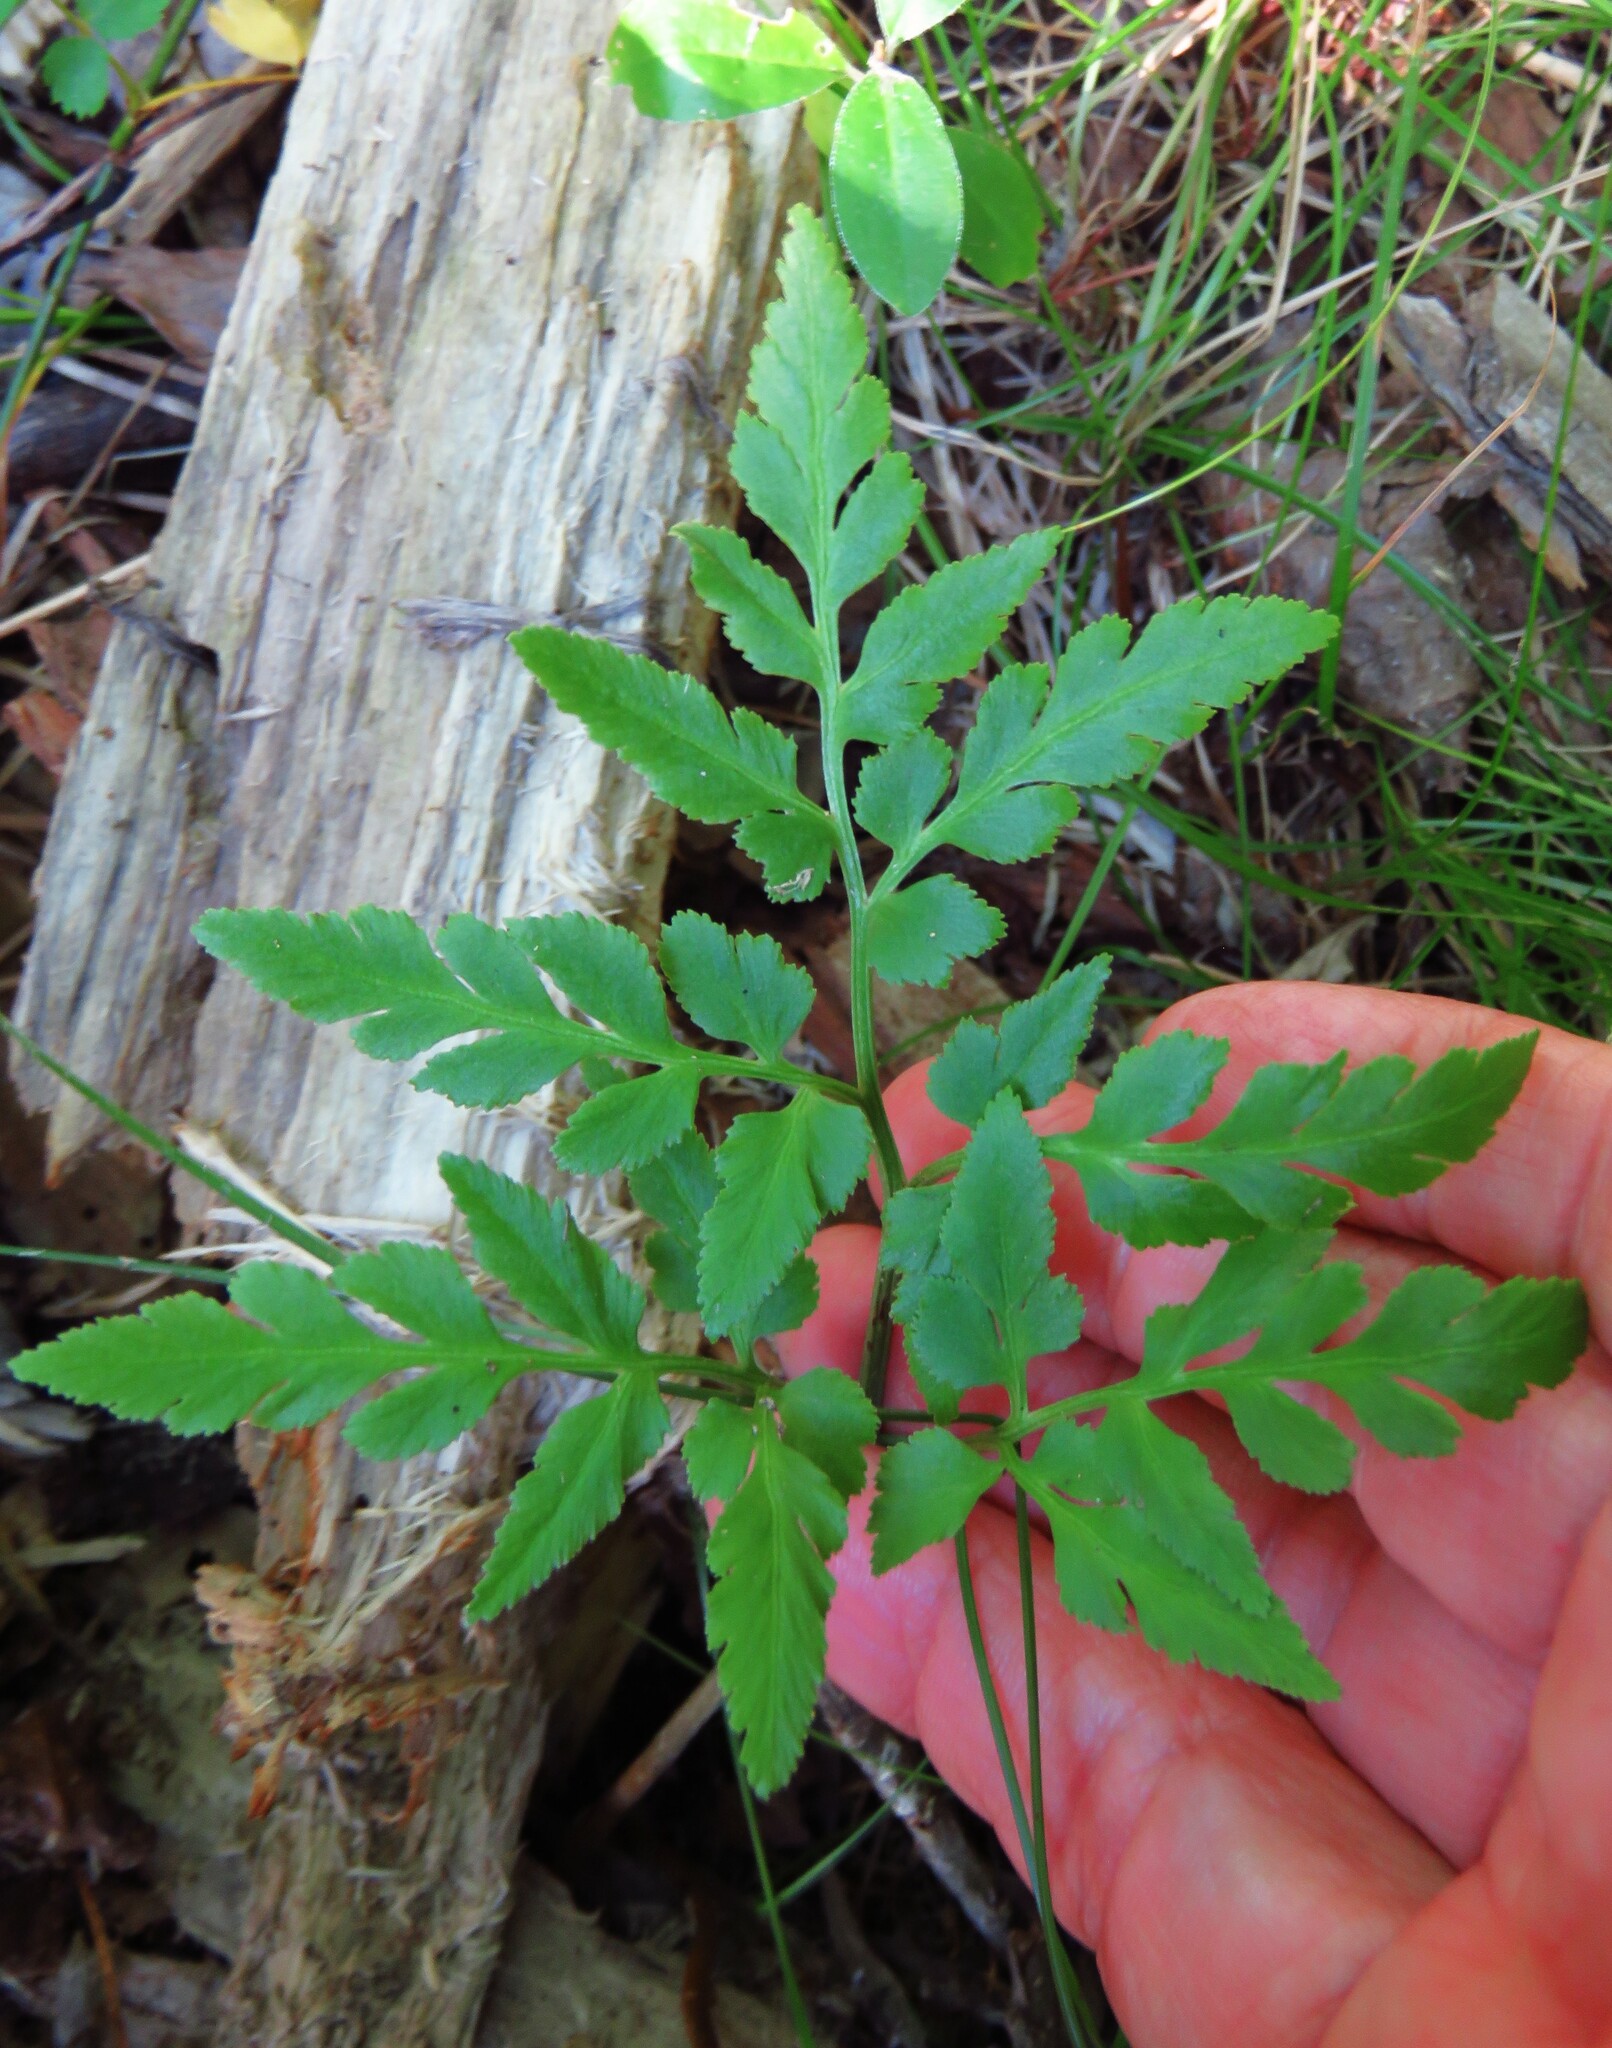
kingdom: Plantae
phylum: Tracheophyta
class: Polypodiopsida
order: Ophioglossales
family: Ophioglossaceae
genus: Sceptridium
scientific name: Sceptridium dissectum
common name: Cut-leaved grapefern
